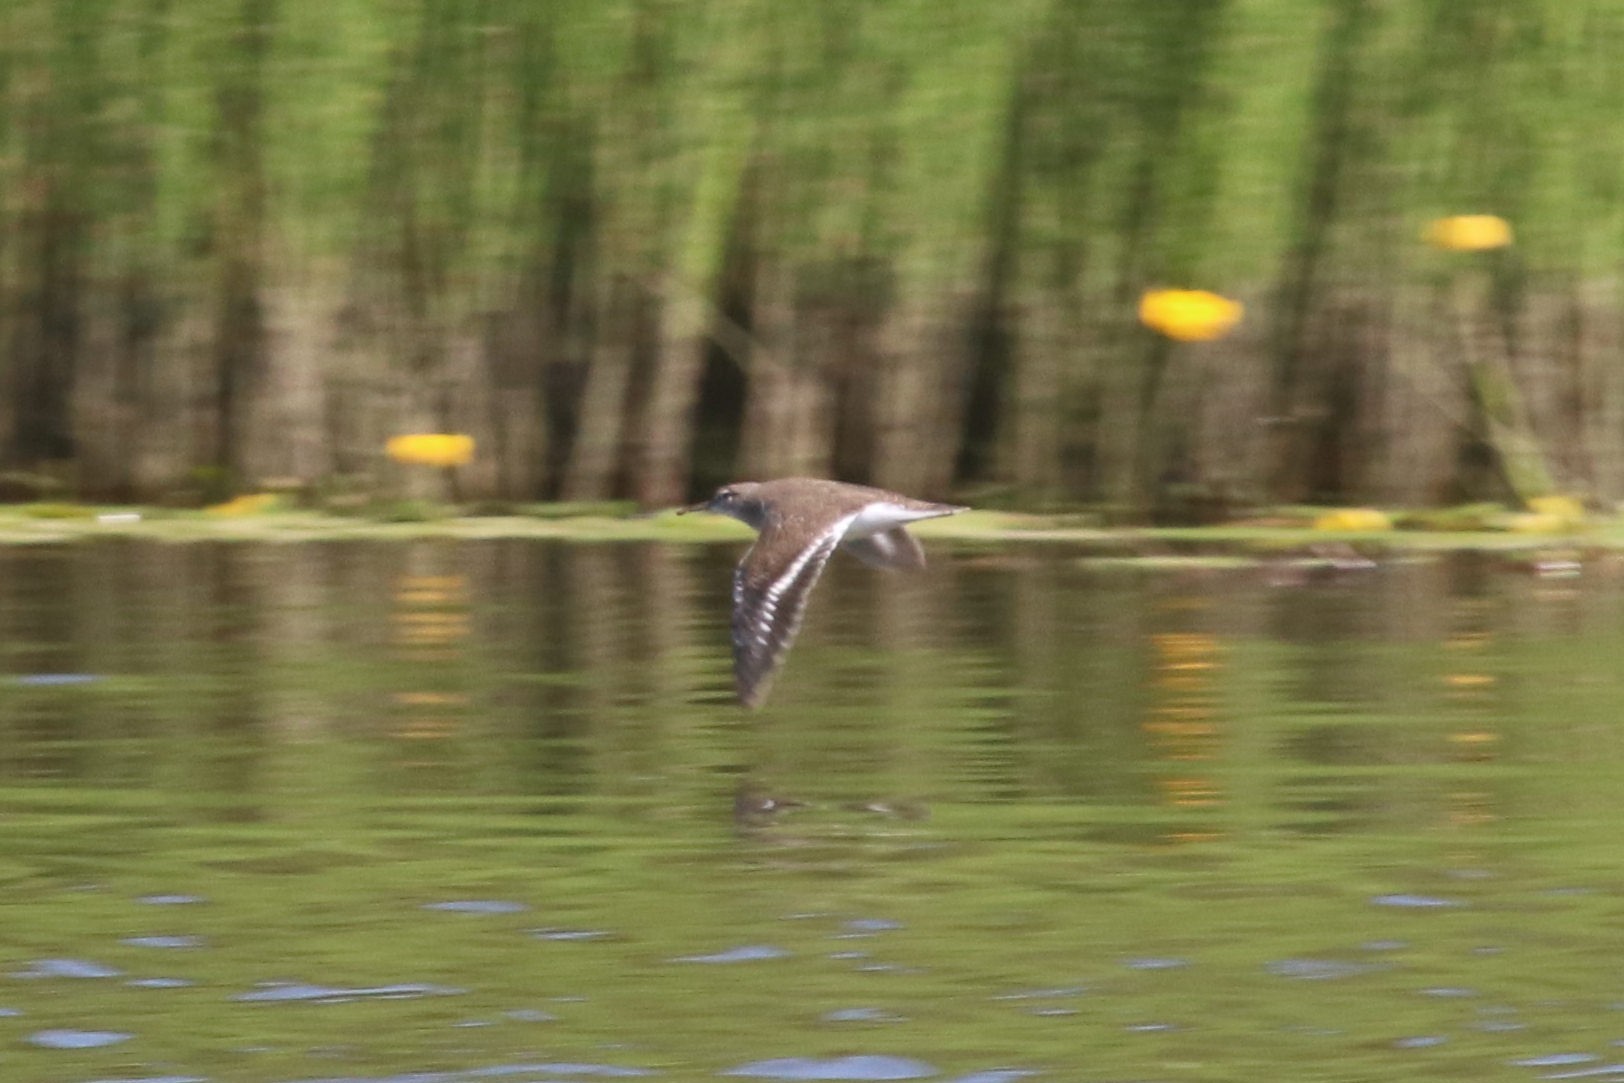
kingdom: Animalia
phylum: Chordata
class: Aves
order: Charadriiformes
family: Scolopacidae
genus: Actitis
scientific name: Actitis hypoleucos
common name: Common sandpiper
